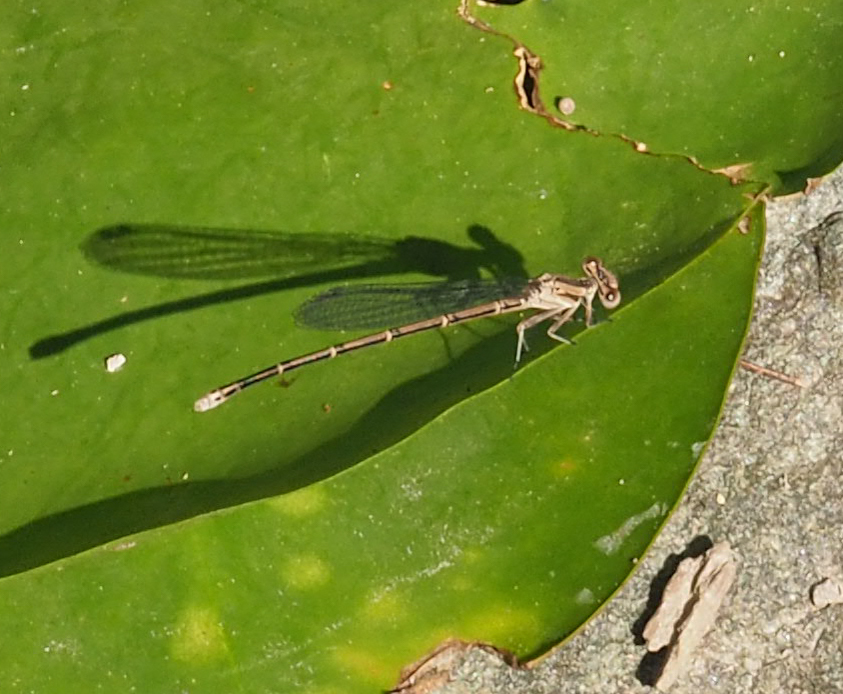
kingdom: Animalia
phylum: Arthropoda
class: Insecta
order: Odonata
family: Coenagrionidae
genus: Argia
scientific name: Argia fumipennis
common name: Variable dancer
